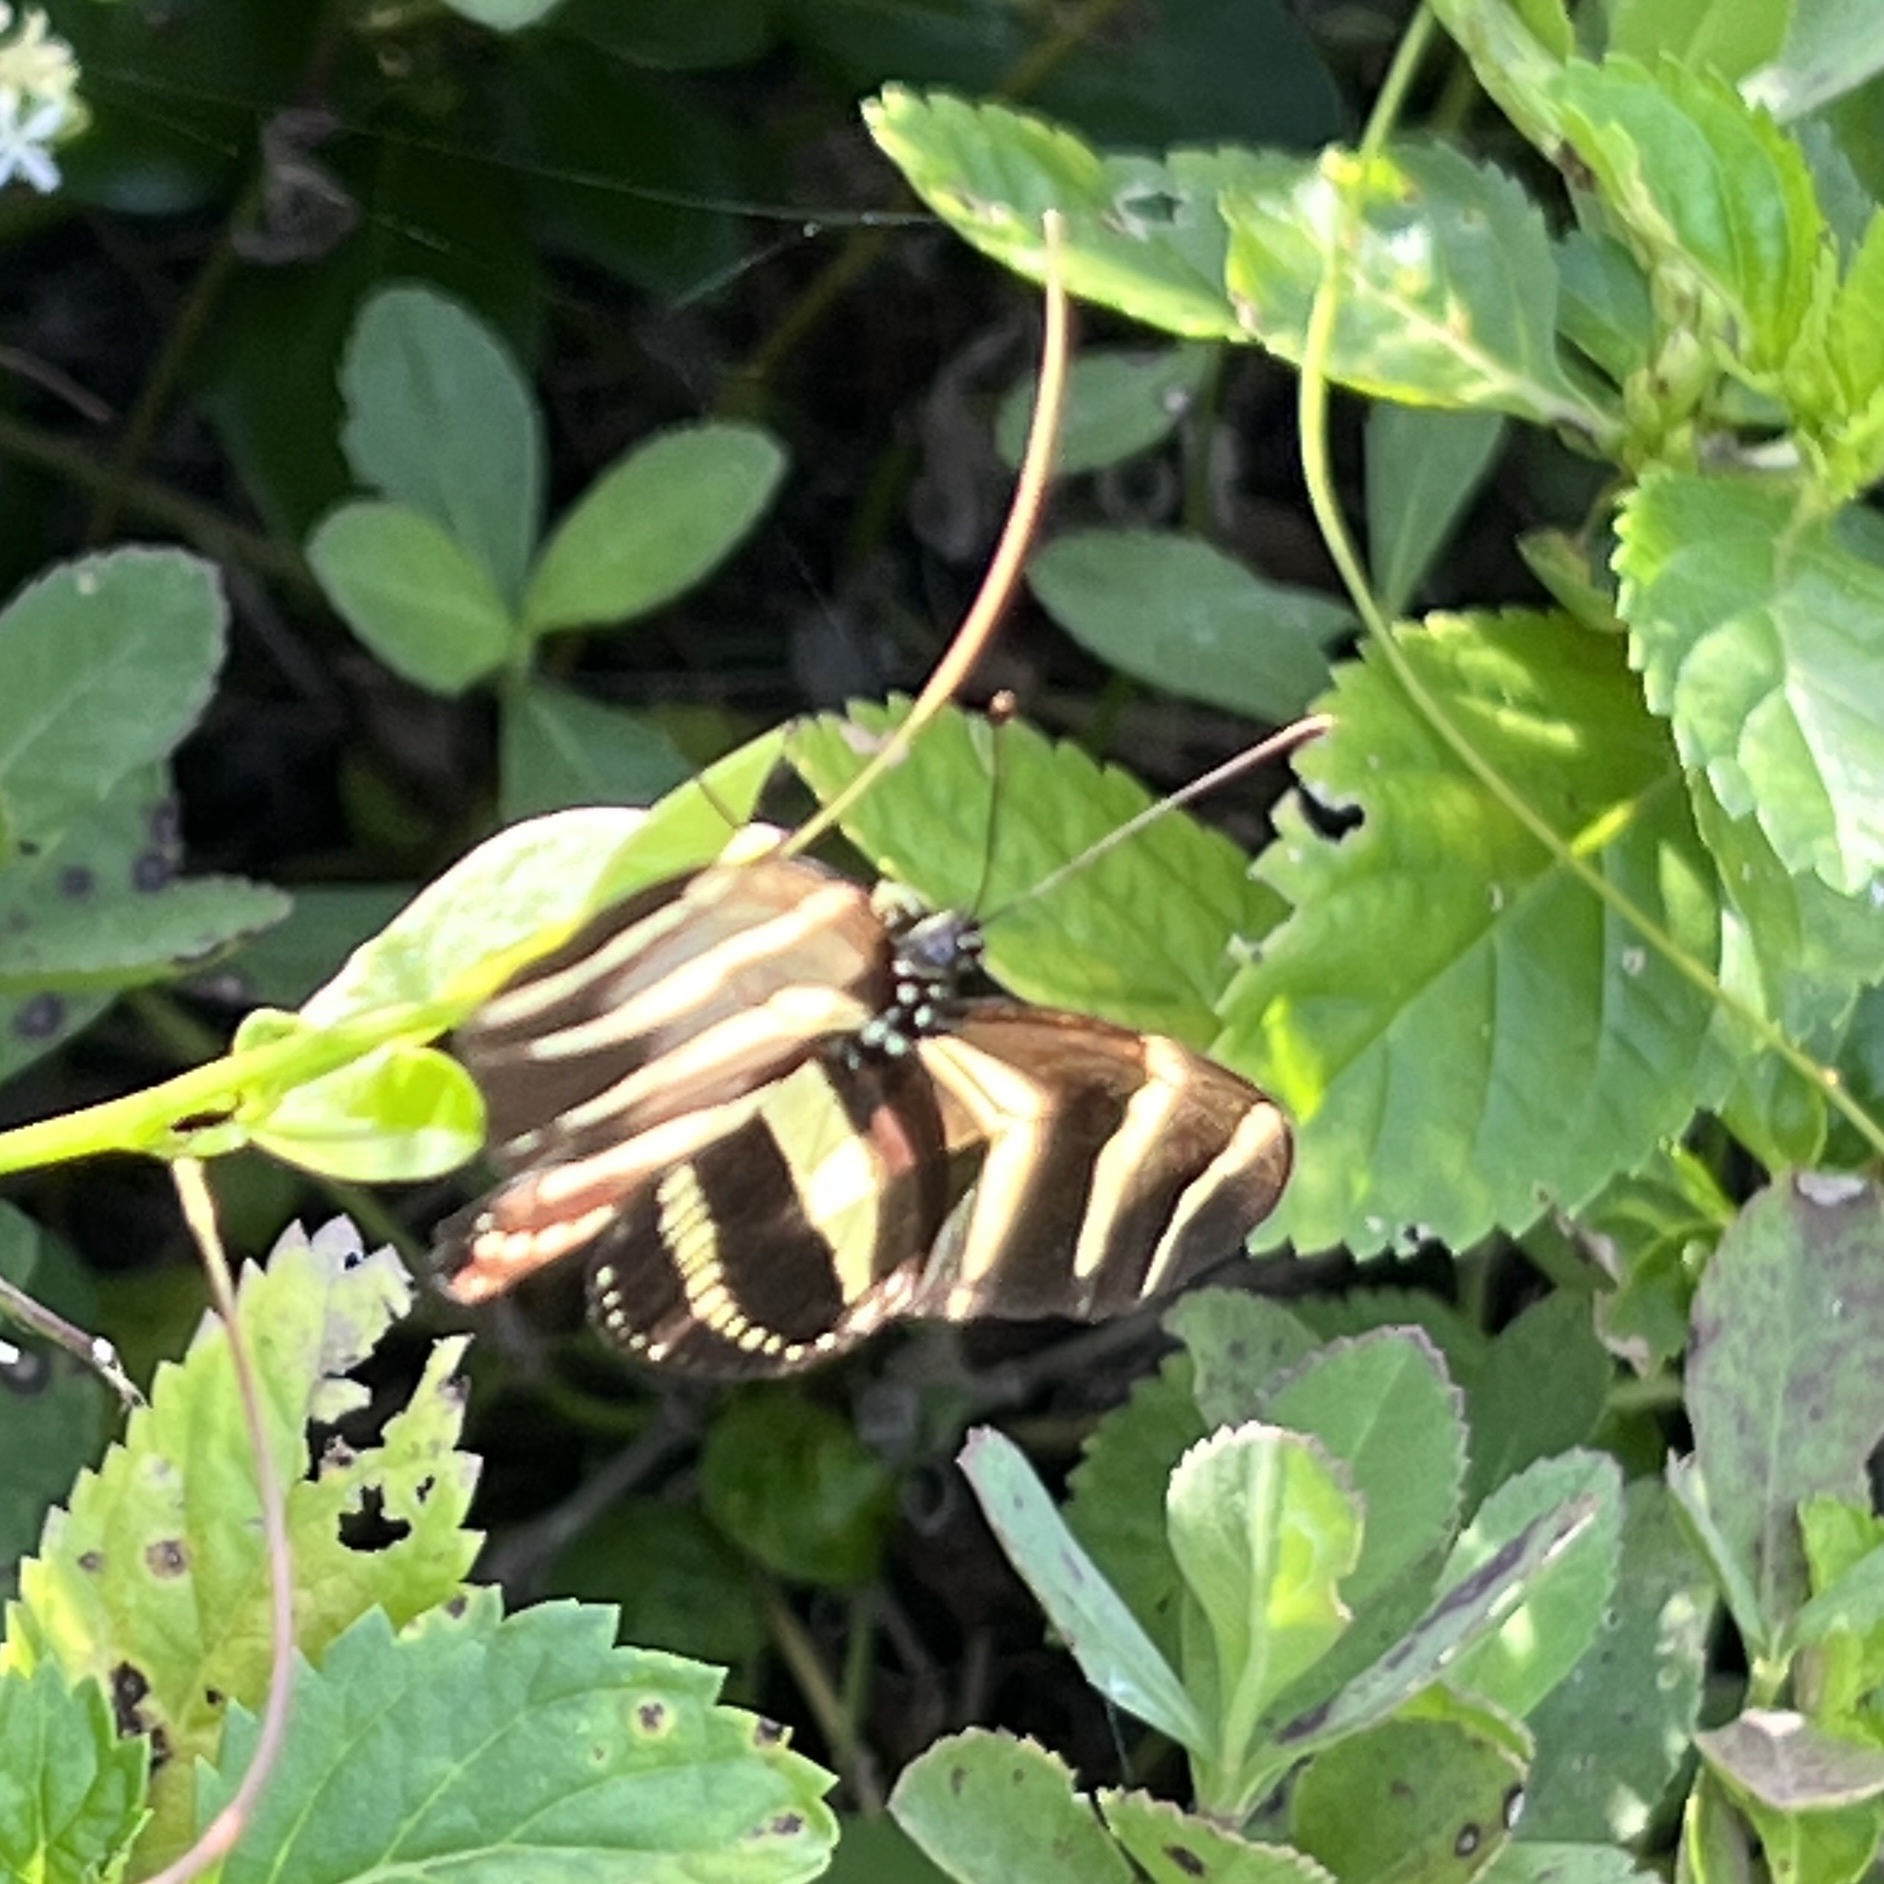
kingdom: Animalia
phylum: Arthropoda
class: Insecta
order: Lepidoptera
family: Nymphalidae
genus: Heliconius
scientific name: Heliconius charithonia
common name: Zebra long wing
